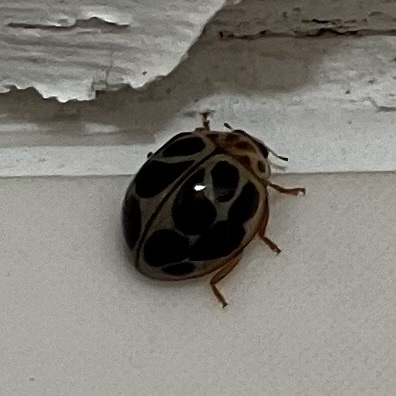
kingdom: Animalia
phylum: Arthropoda
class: Insecta
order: Coleoptera
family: Coccinellidae
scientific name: Coccinellidae
